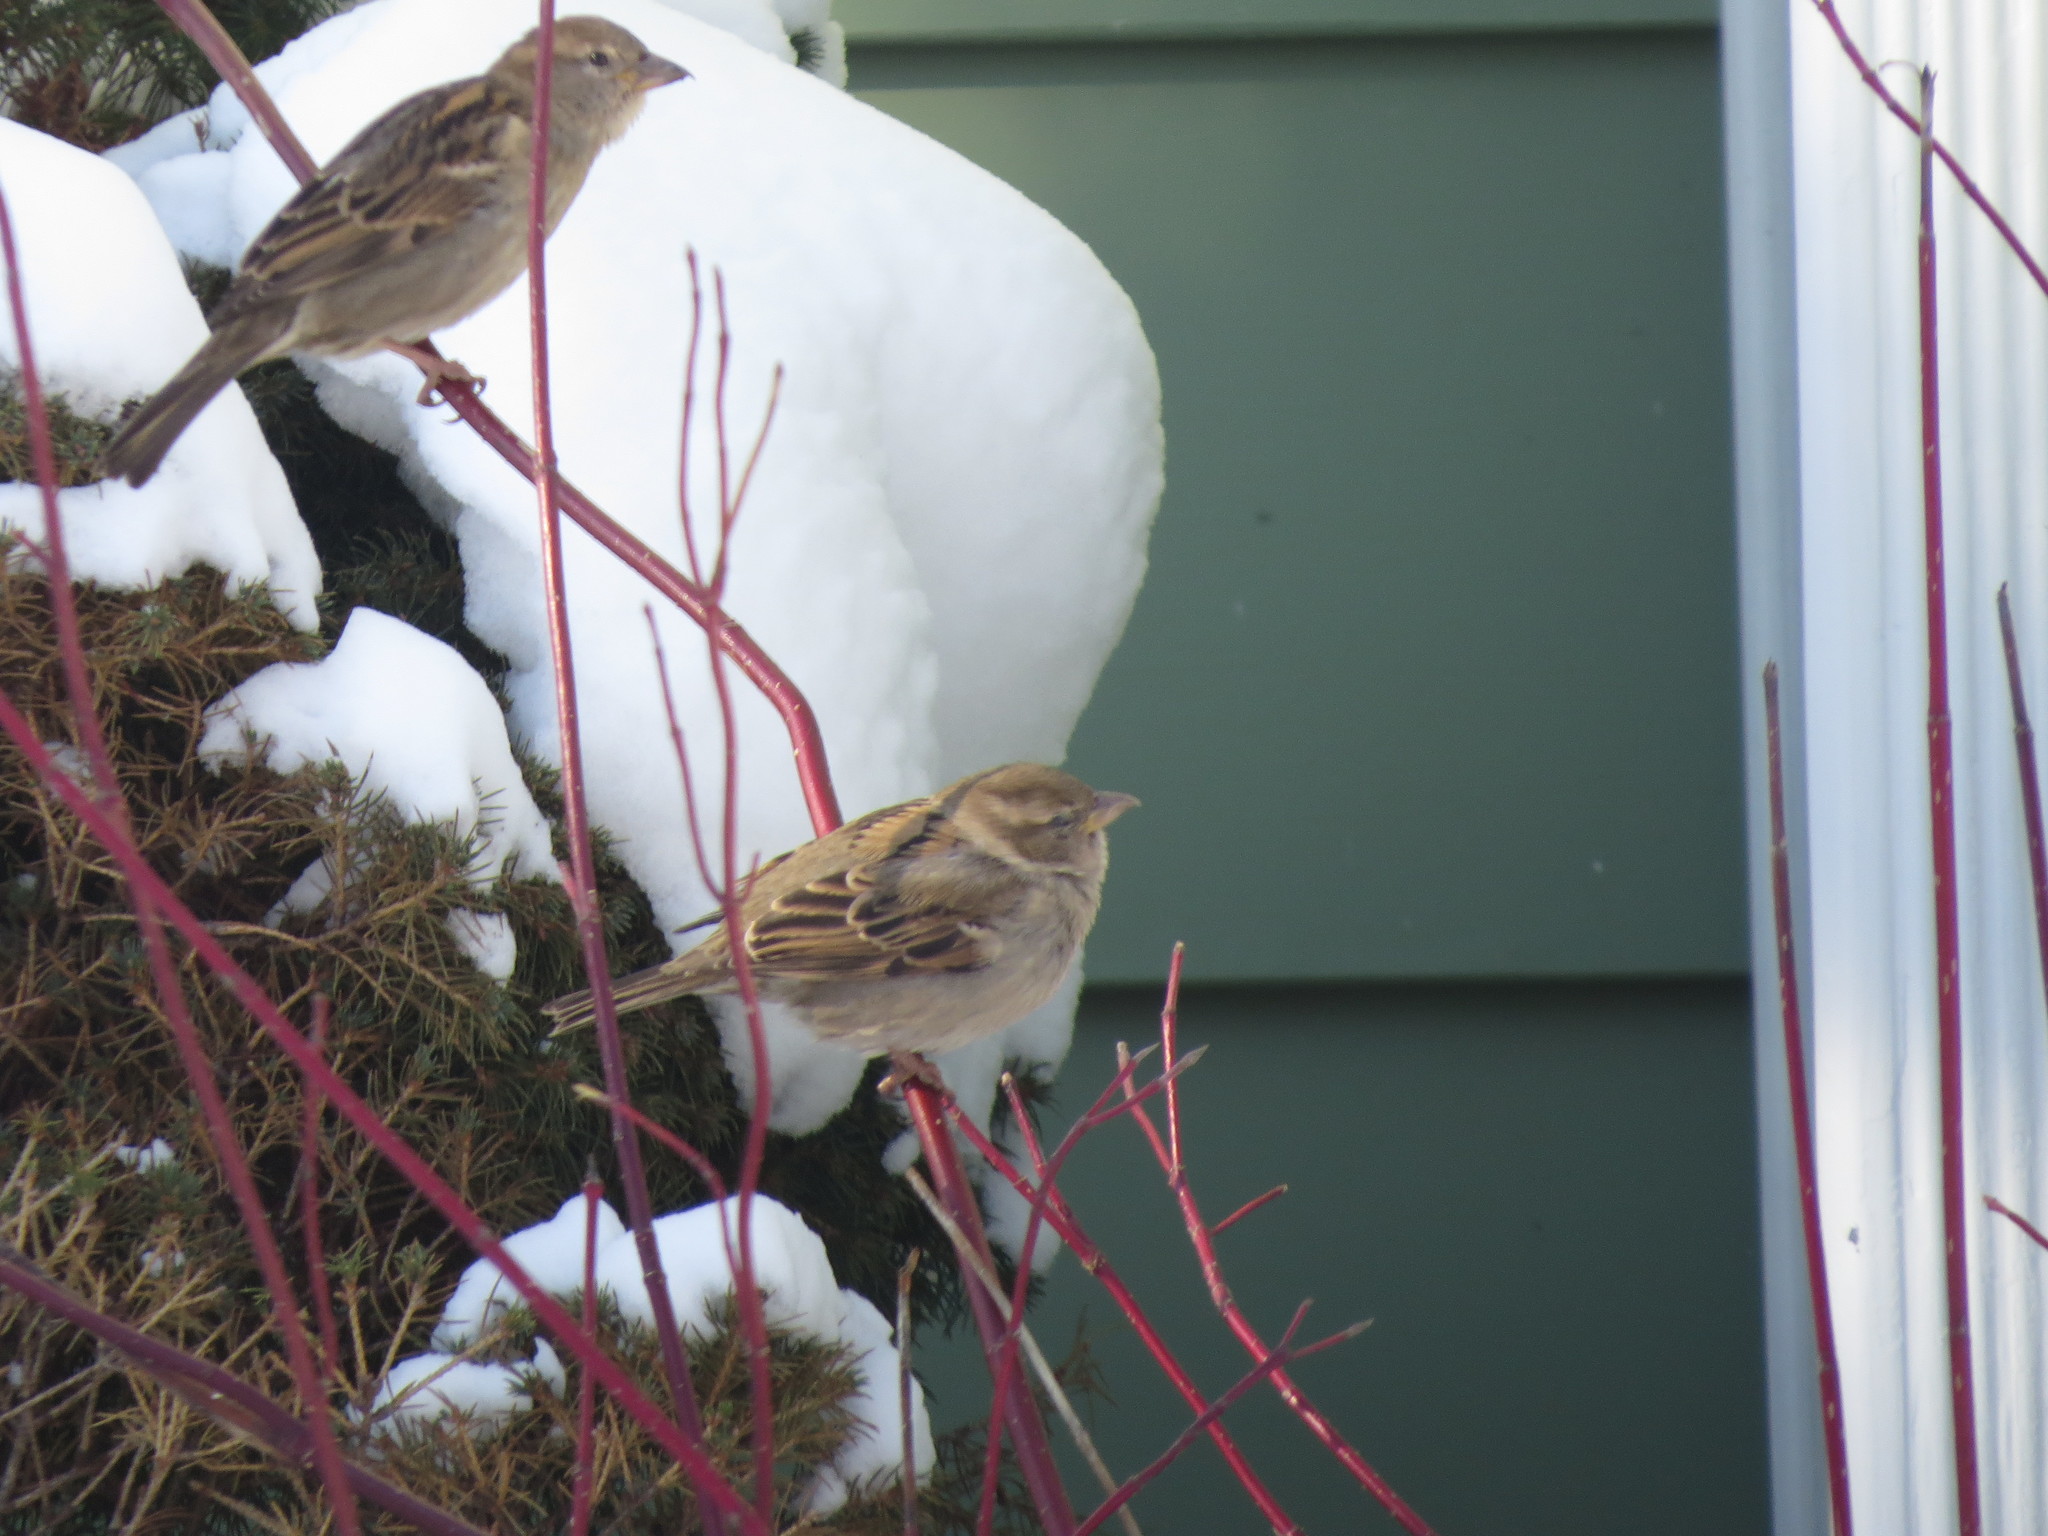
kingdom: Animalia
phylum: Chordata
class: Aves
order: Passeriformes
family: Passeridae
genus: Passer
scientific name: Passer domesticus
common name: House sparrow
